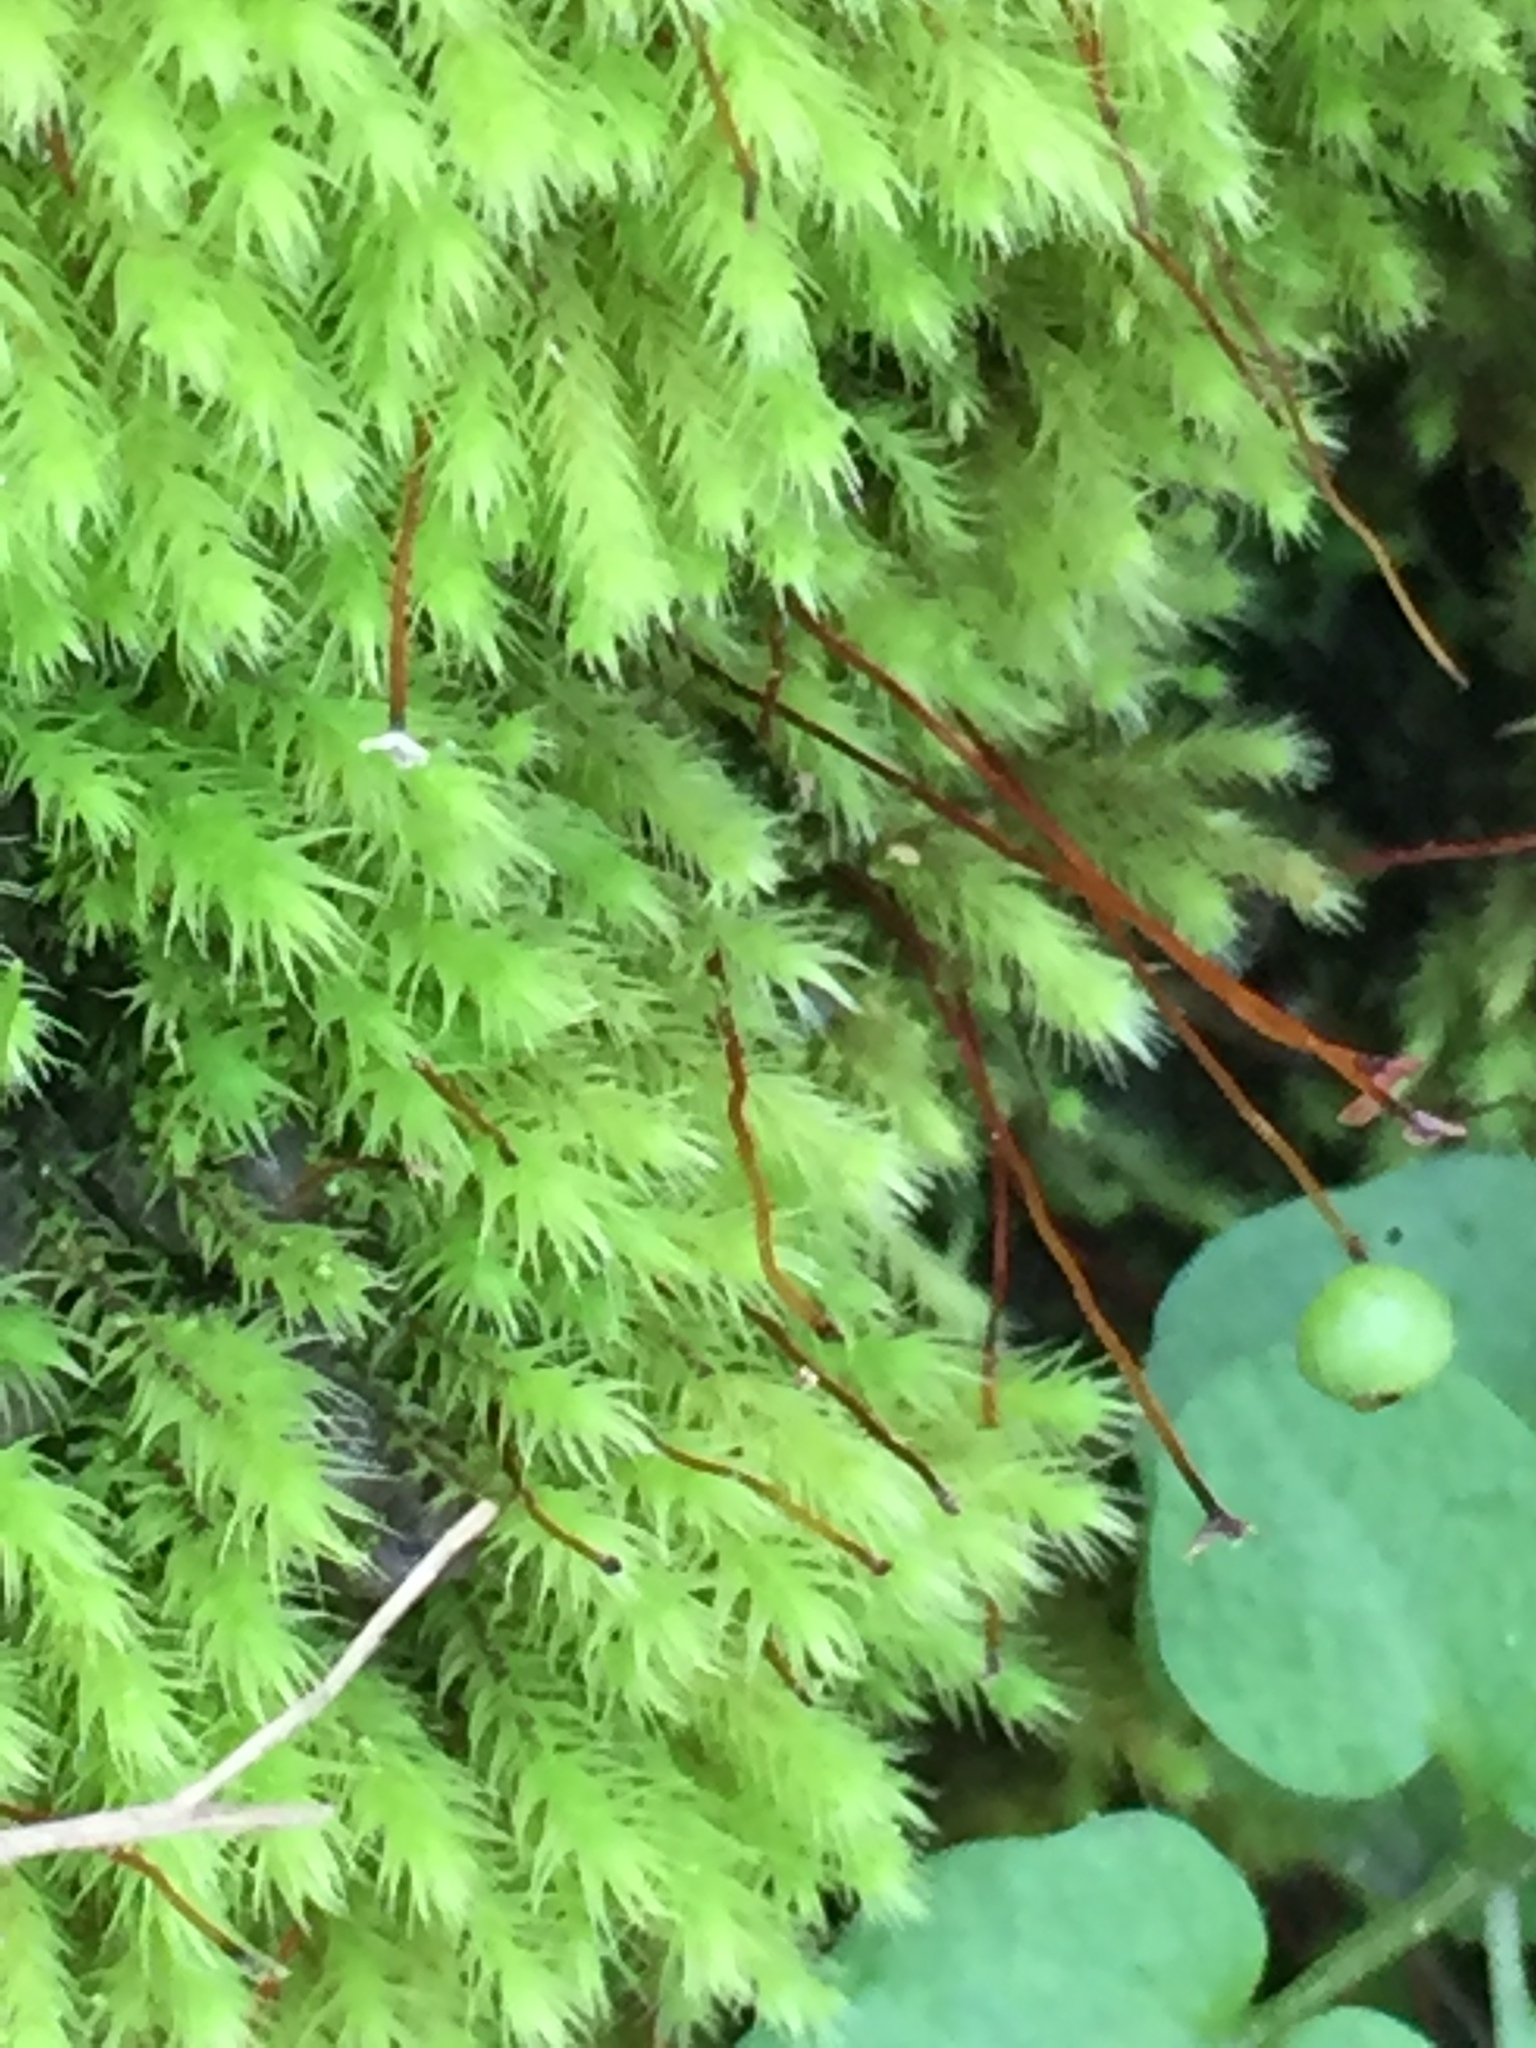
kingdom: Plantae
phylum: Bryophyta
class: Bryopsida
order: Bartramiales
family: Bartramiaceae
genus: Philonotis
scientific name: Philonotis tenuis
